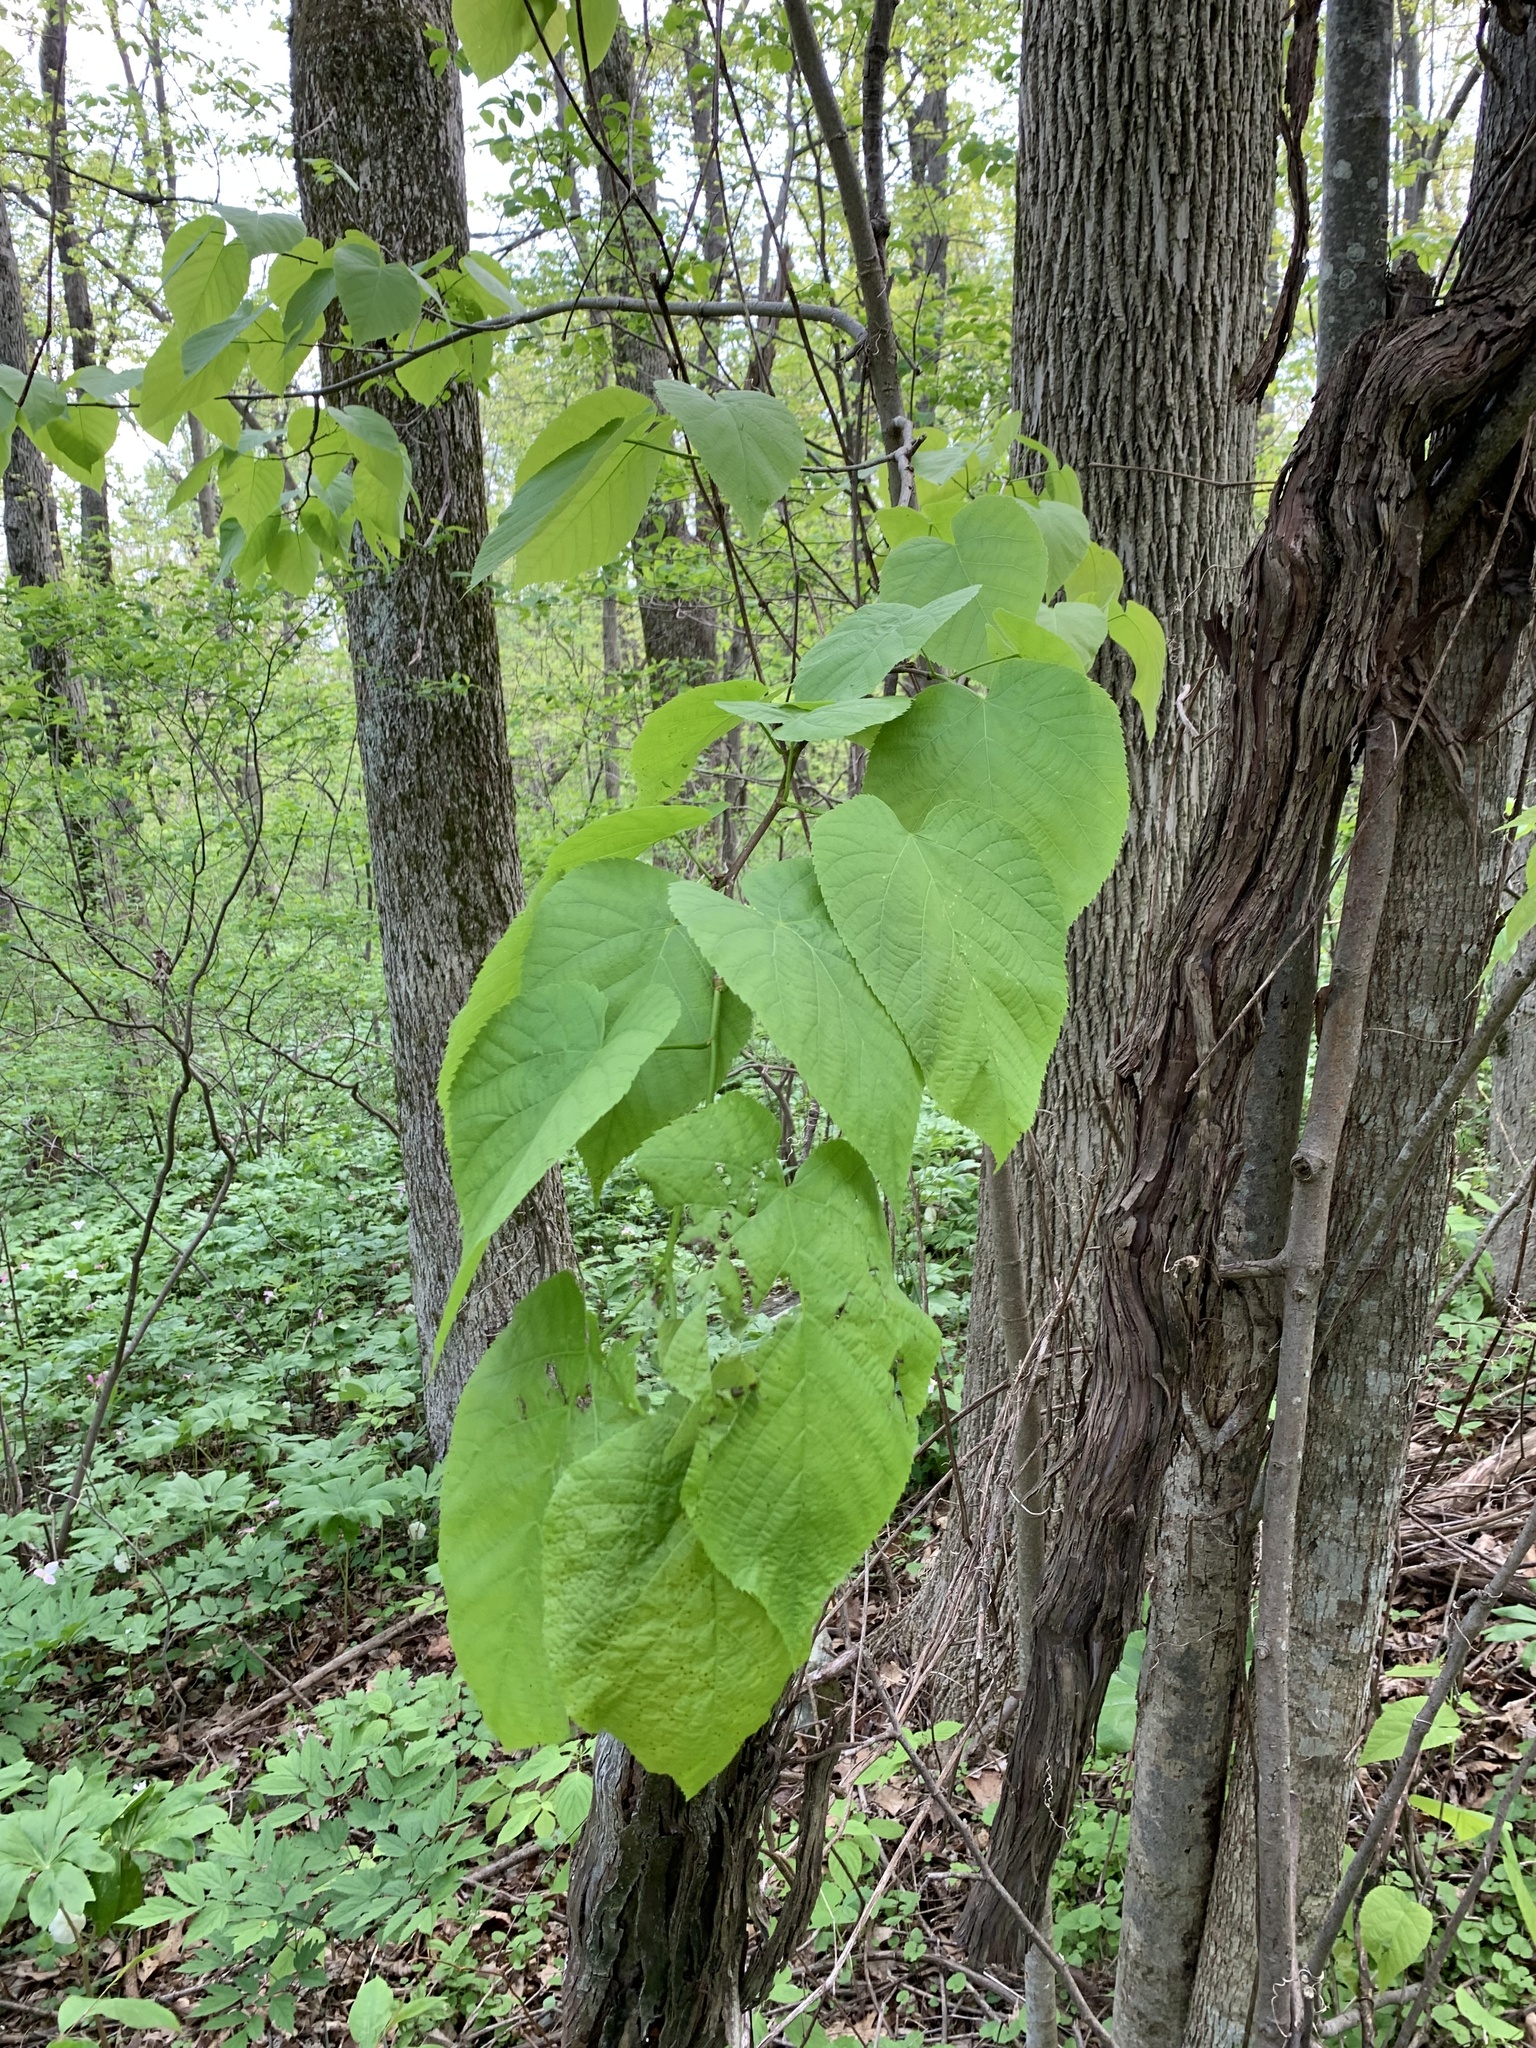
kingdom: Plantae
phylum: Tracheophyta
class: Magnoliopsida
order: Malvales
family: Malvaceae
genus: Tilia
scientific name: Tilia americana
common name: Basswood
